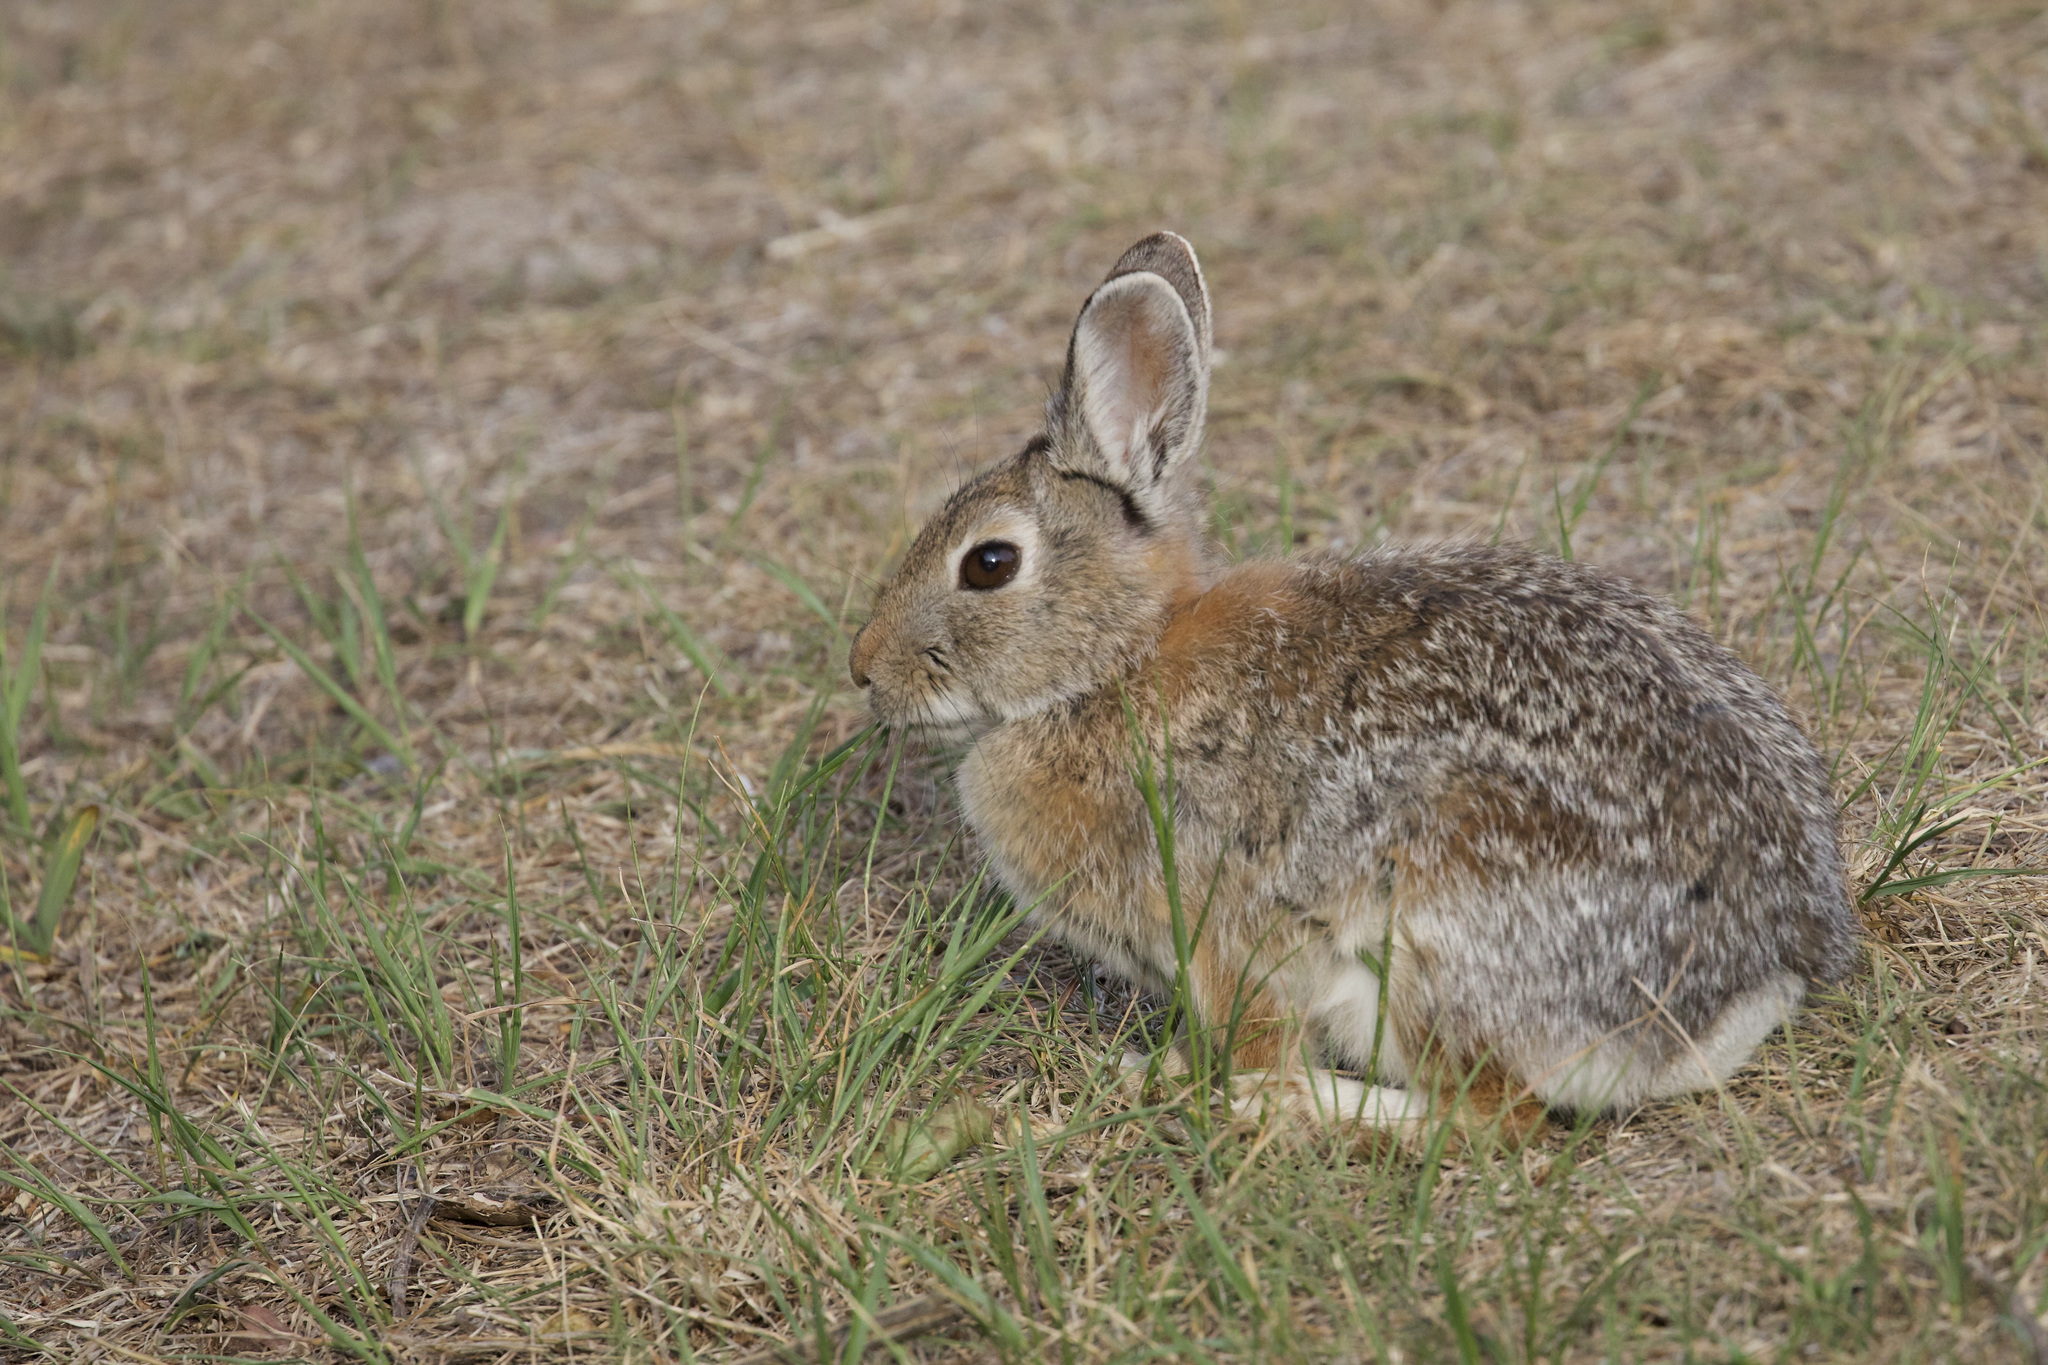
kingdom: Animalia
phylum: Chordata
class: Mammalia
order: Lagomorpha
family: Leporidae
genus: Sylvilagus
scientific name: Sylvilagus nuttallii
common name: Mountain cottontail
